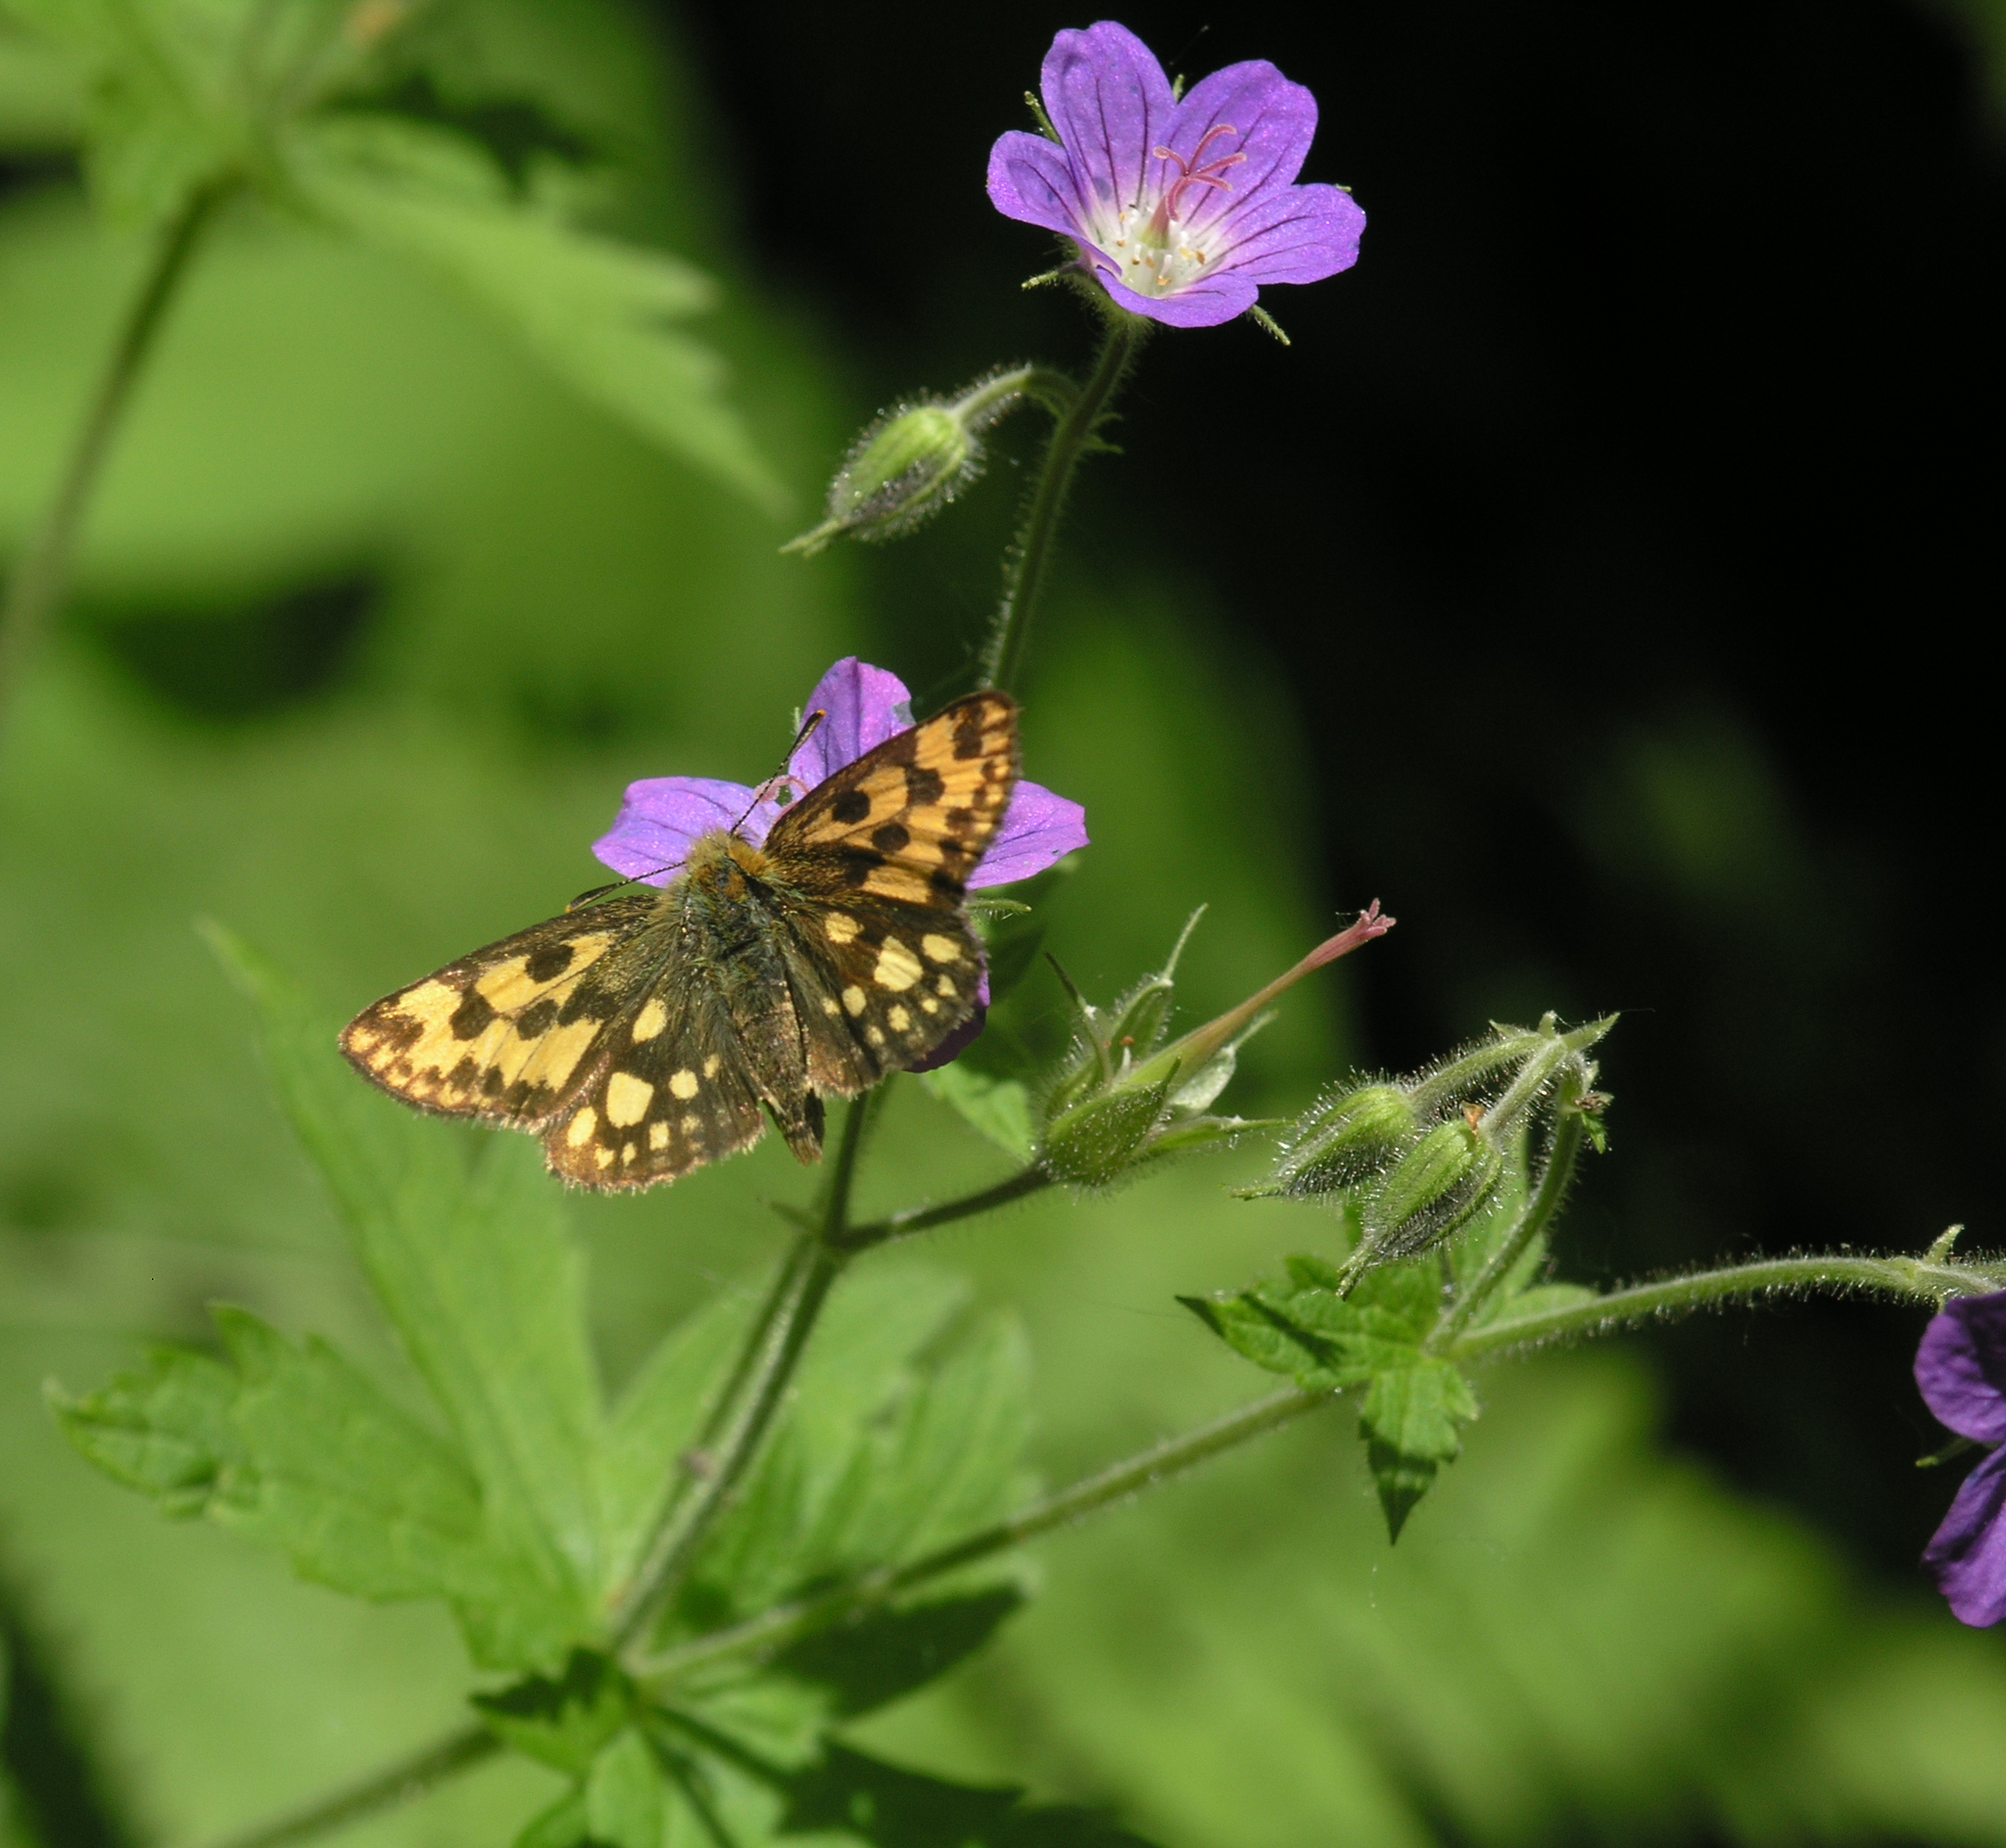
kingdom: Animalia
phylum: Arthropoda
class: Insecta
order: Lepidoptera
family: Hesperiidae
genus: Carterocephalus
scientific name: Carterocephalus silvicola
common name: Northern chequered skipper
